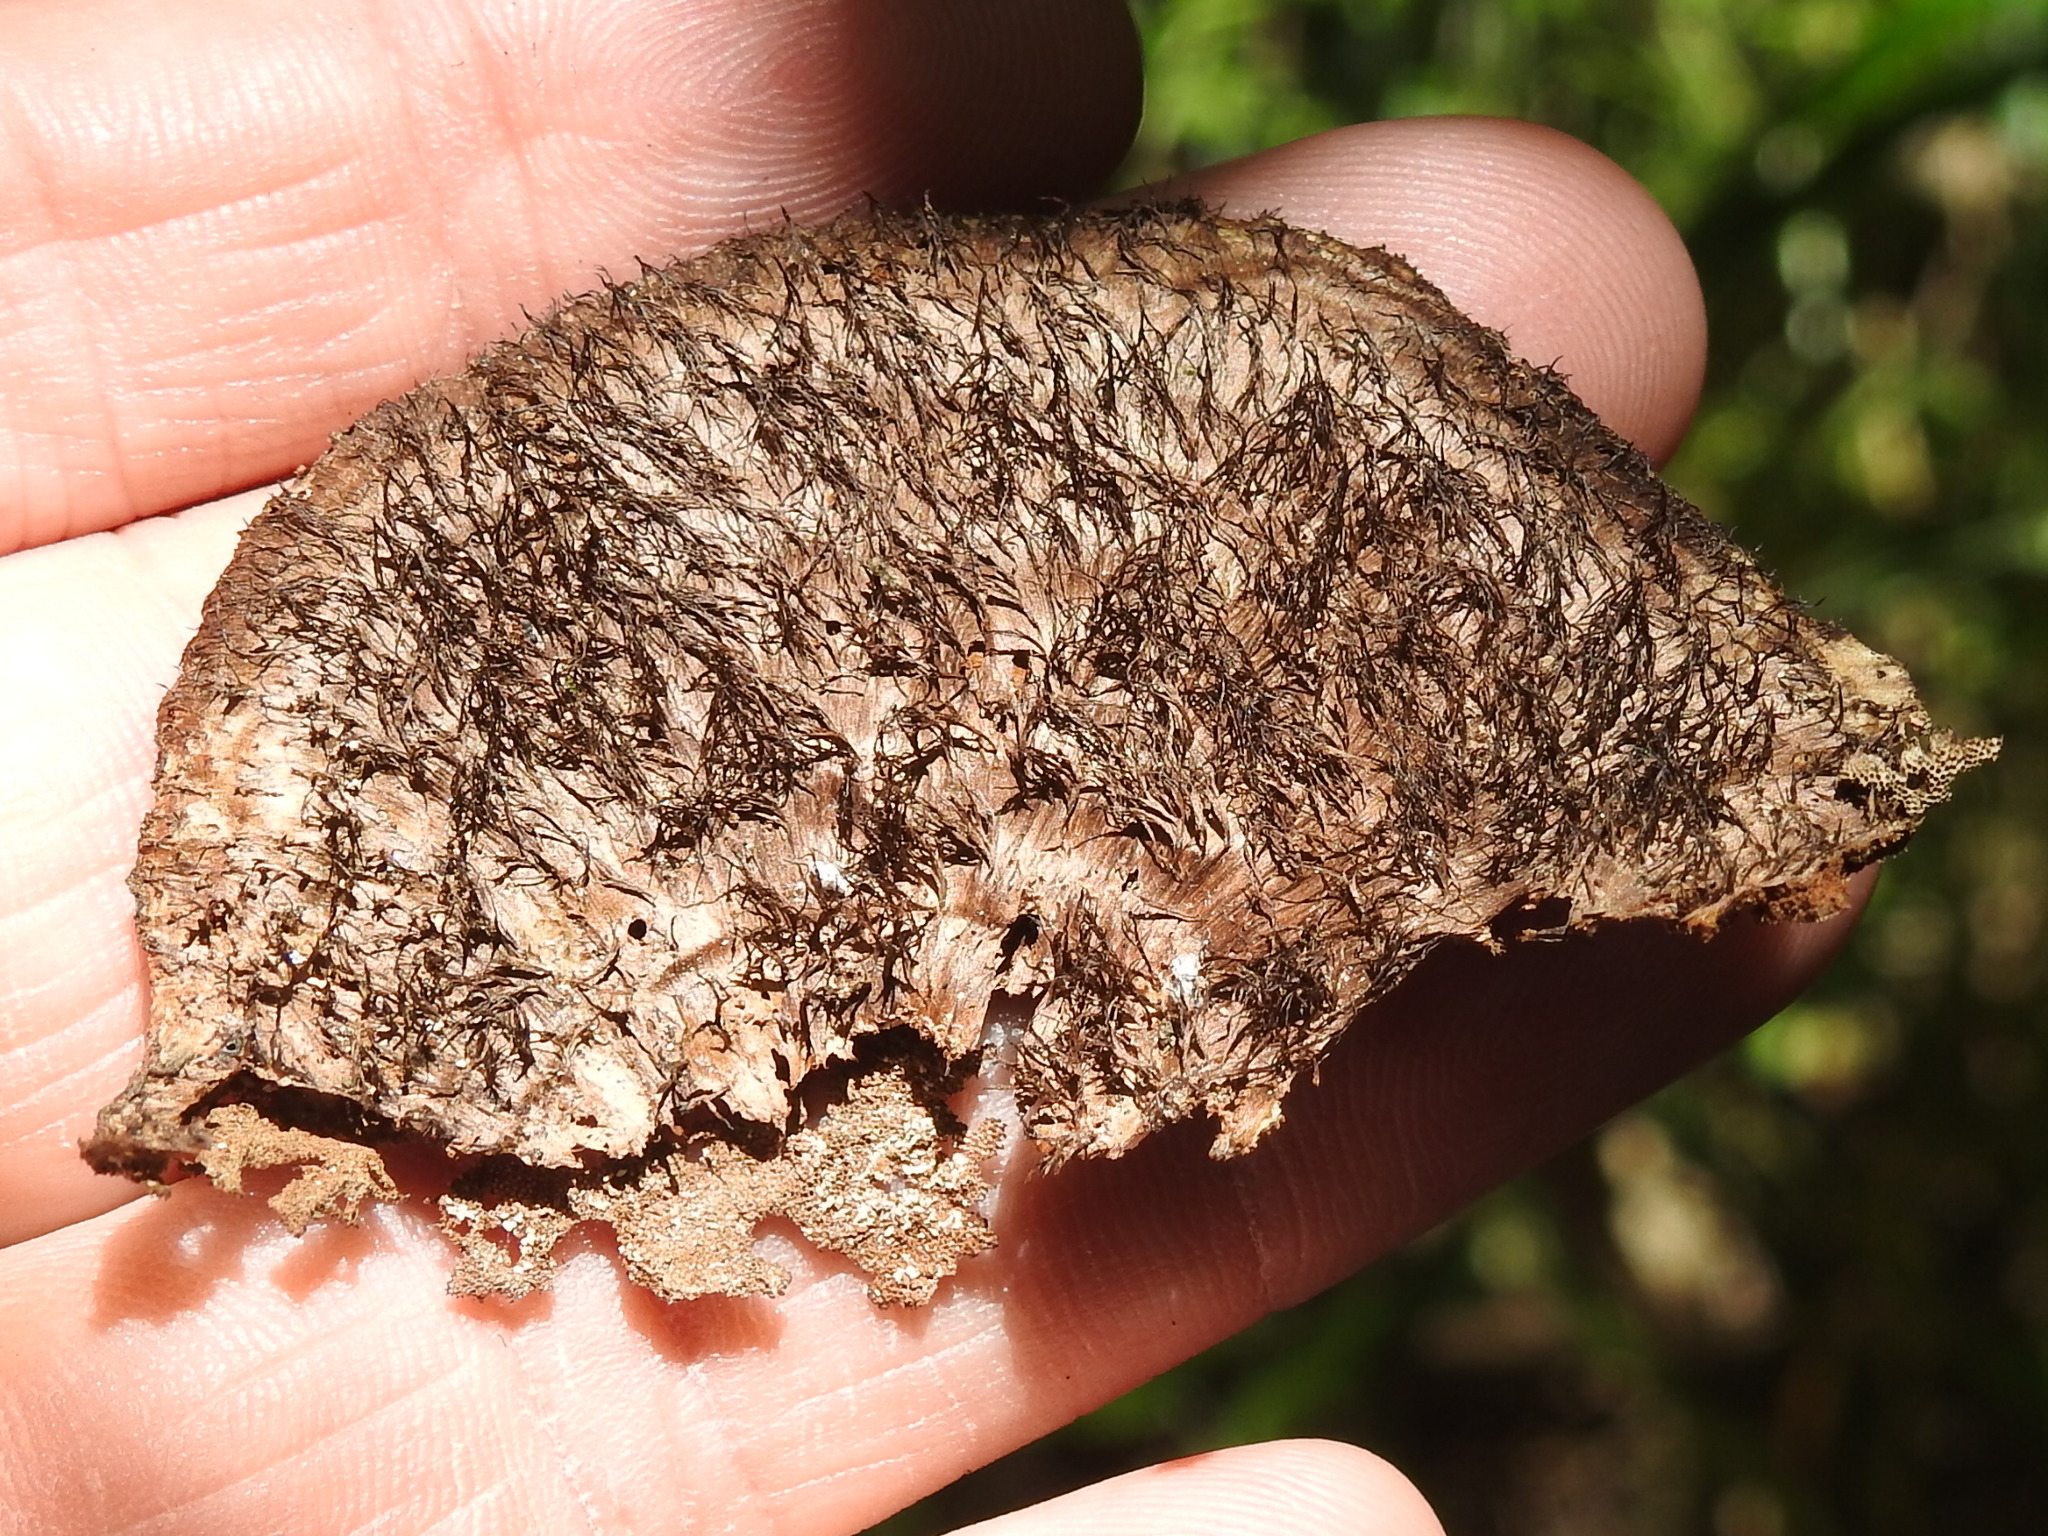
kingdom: Fungi
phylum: Basidiomycota
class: Agaricomycetes
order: Polyporales
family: Cerrenaceae
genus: Cerrena
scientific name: Cerrena hydnoides
